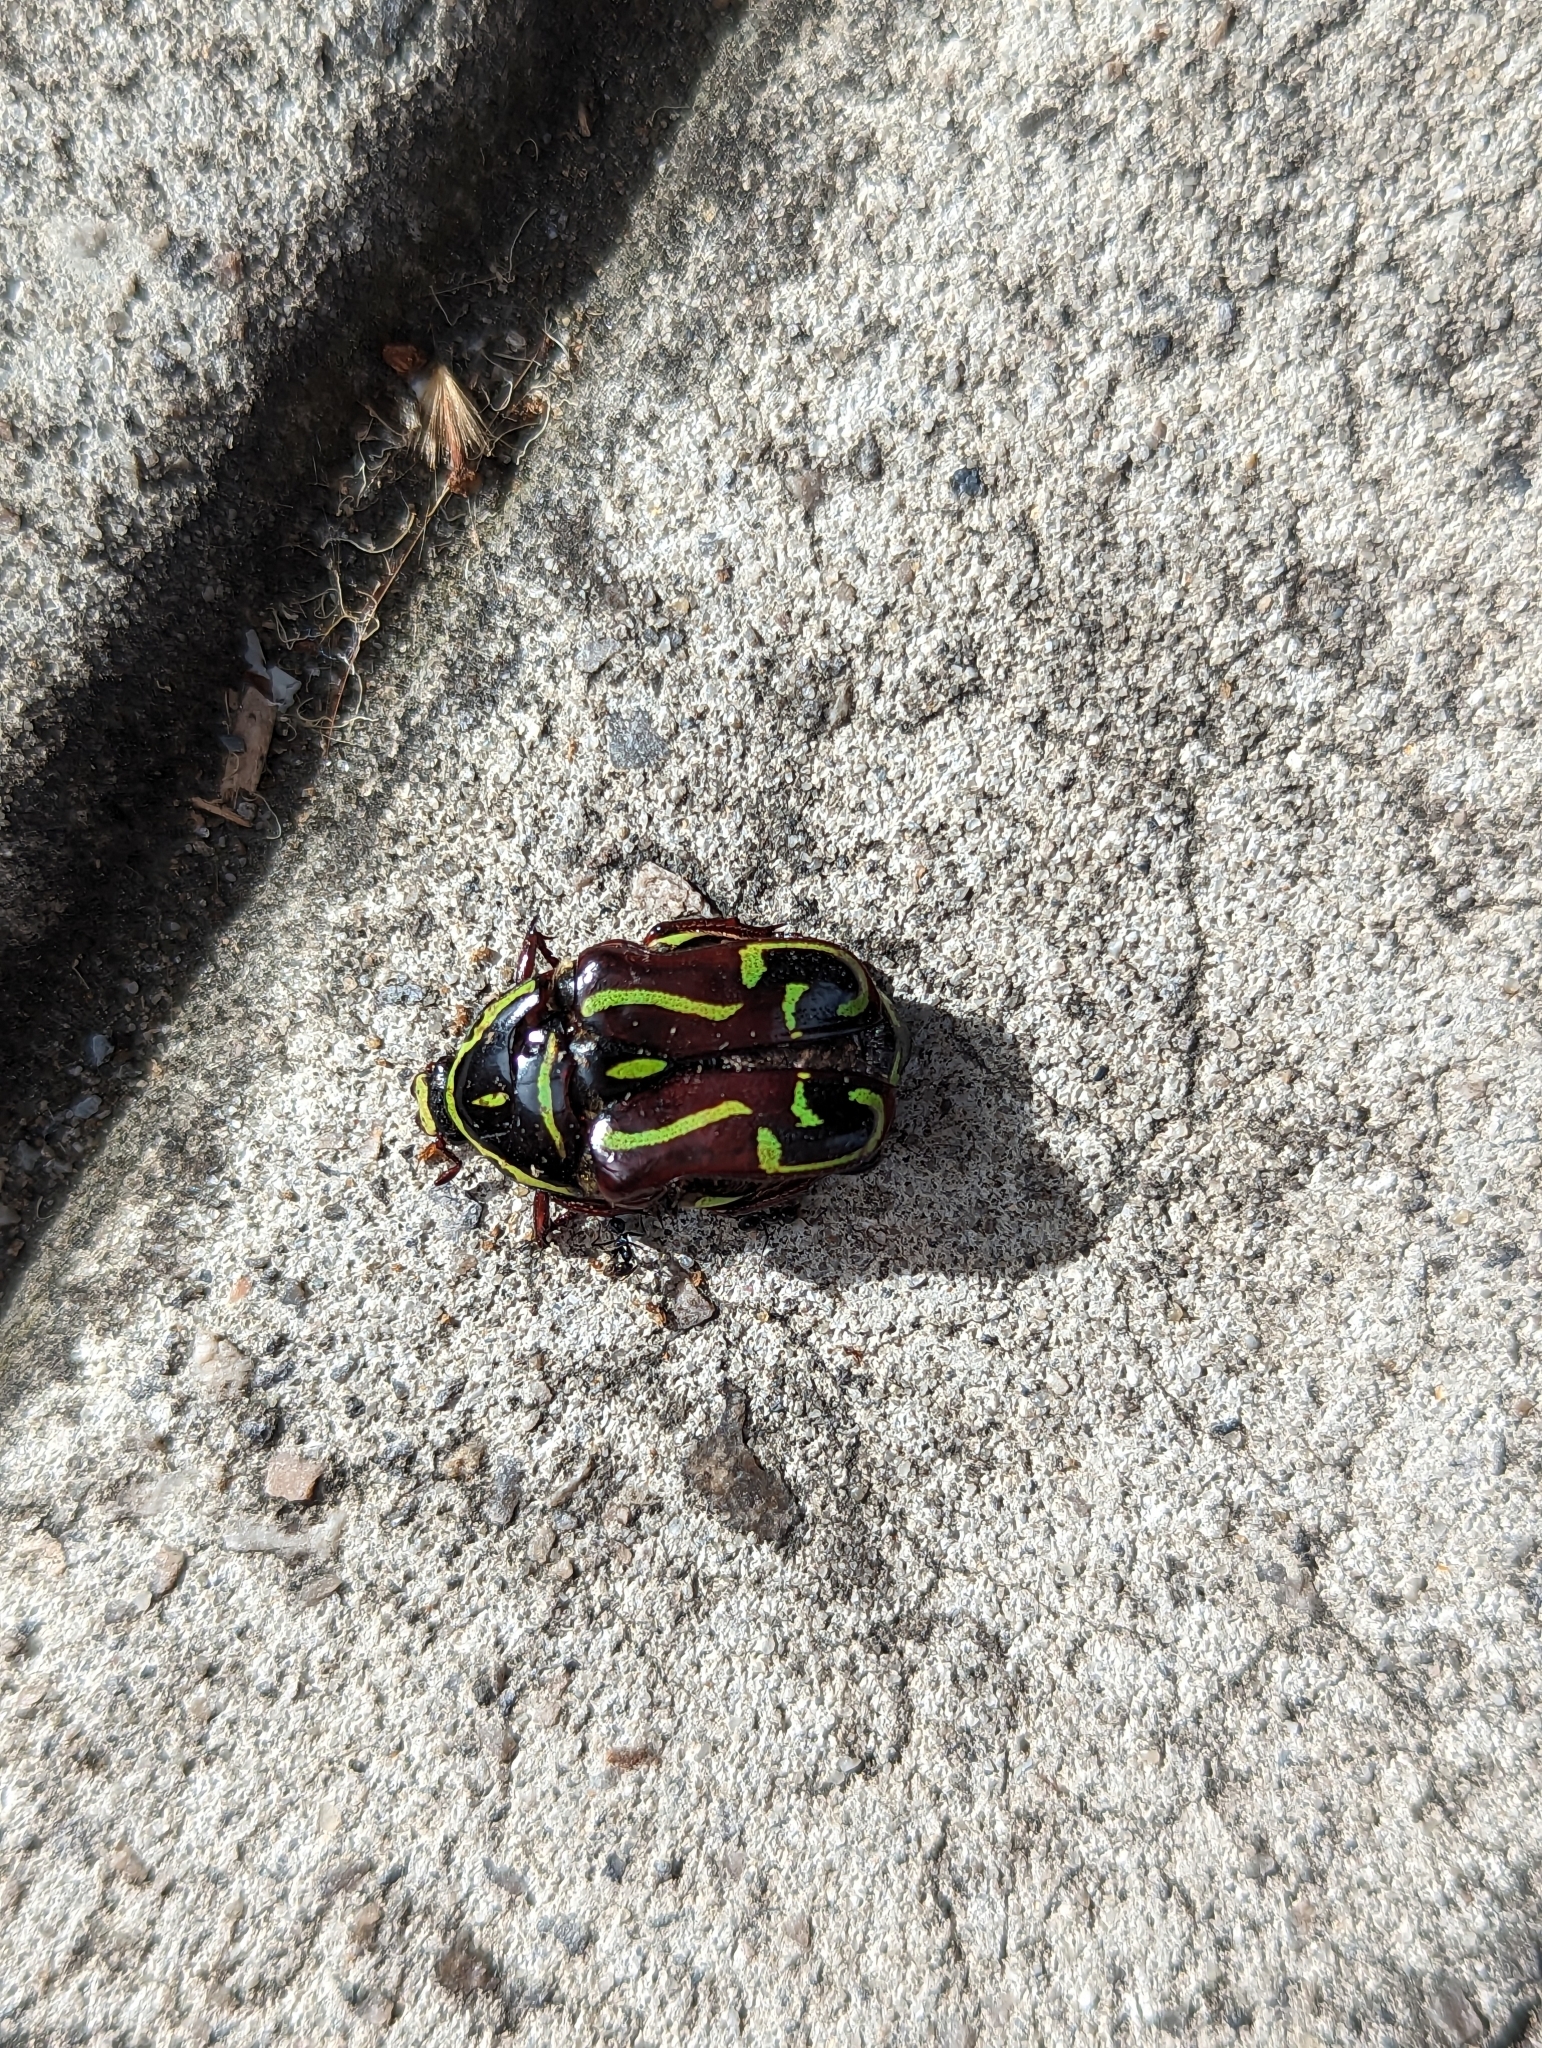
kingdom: Animalia
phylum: Arthropoda
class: Insecta
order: Coleoptera
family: Scarabaeidae
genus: Eupoecila
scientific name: Eupoecila australasiae
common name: Fiddler beetle
